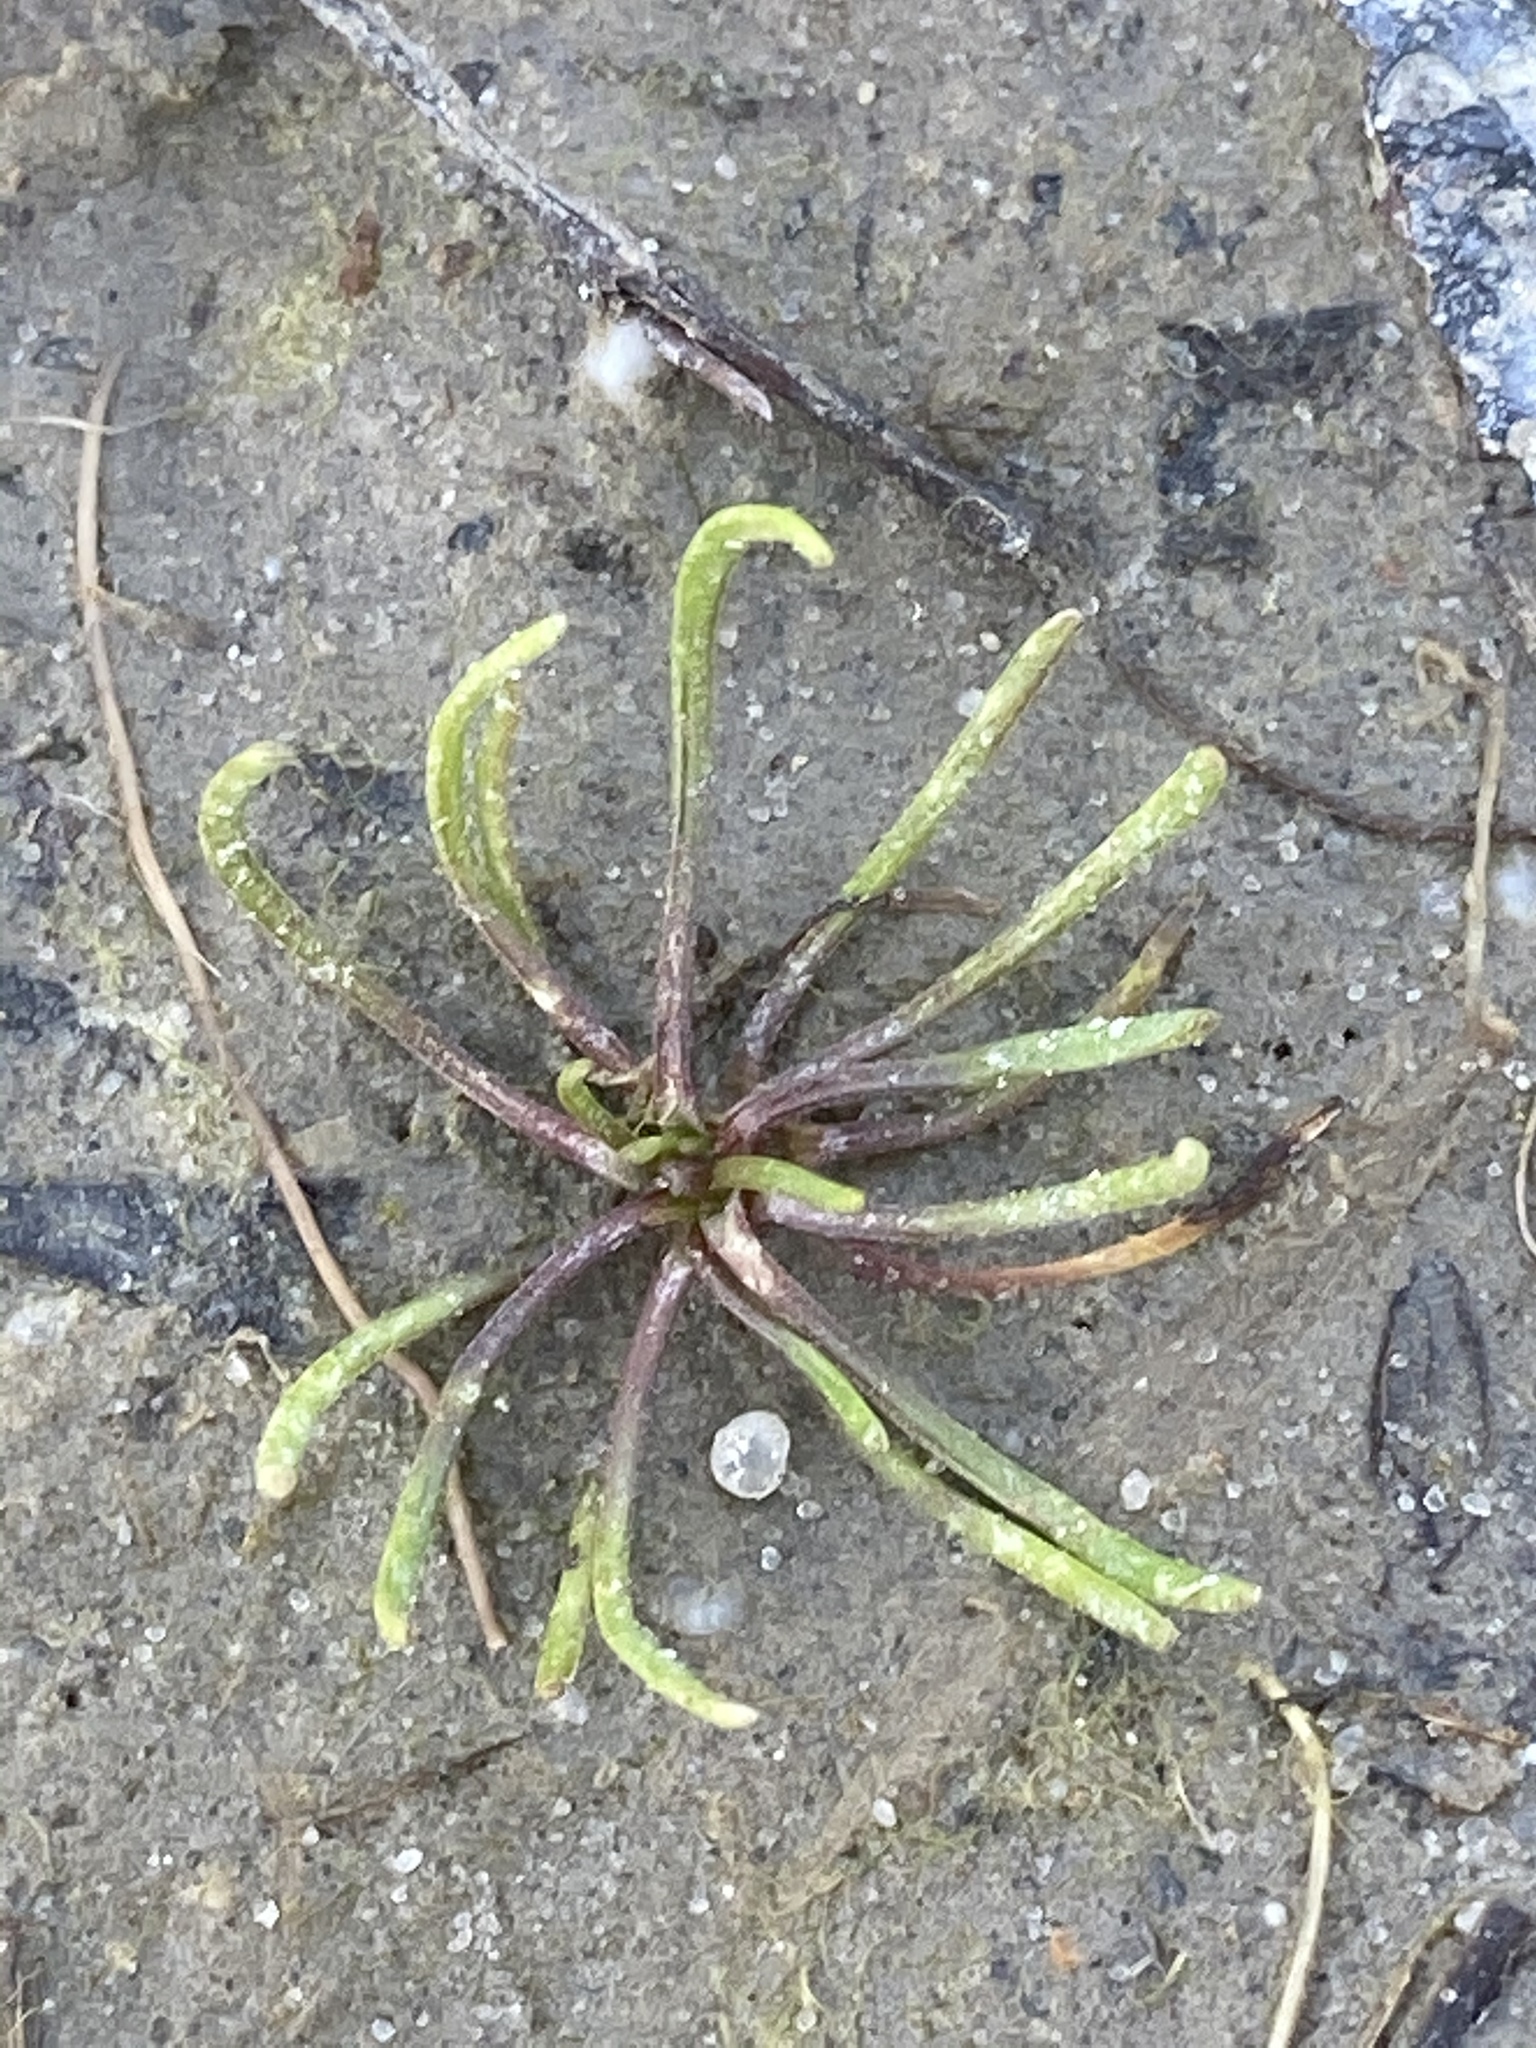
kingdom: Plantae
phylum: Tracheophyta
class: Magnoliopsida
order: Ranunculales
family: Ranunculaceae
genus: Myosurus
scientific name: Myosurus minimus
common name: Mousetail
